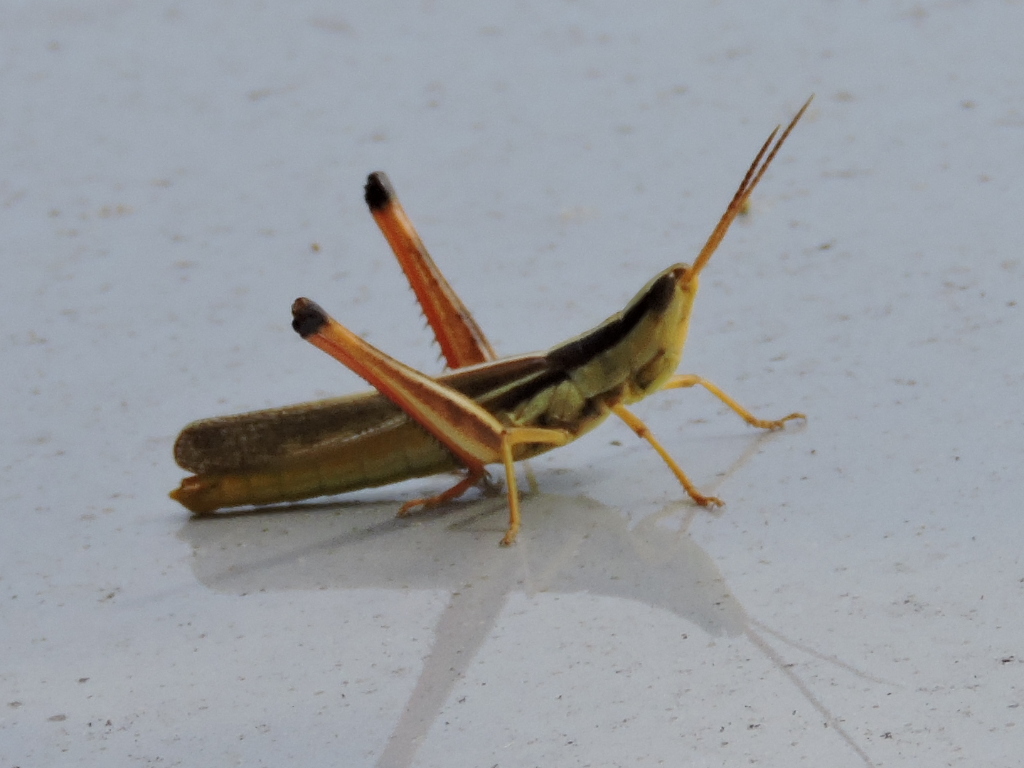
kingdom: Animalia
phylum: Arthropoda
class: Insecta
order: Orthoptera
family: Acrididae
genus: Mermiria
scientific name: Mermiria bivittata
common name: Two-striped mermiria grasshopper
